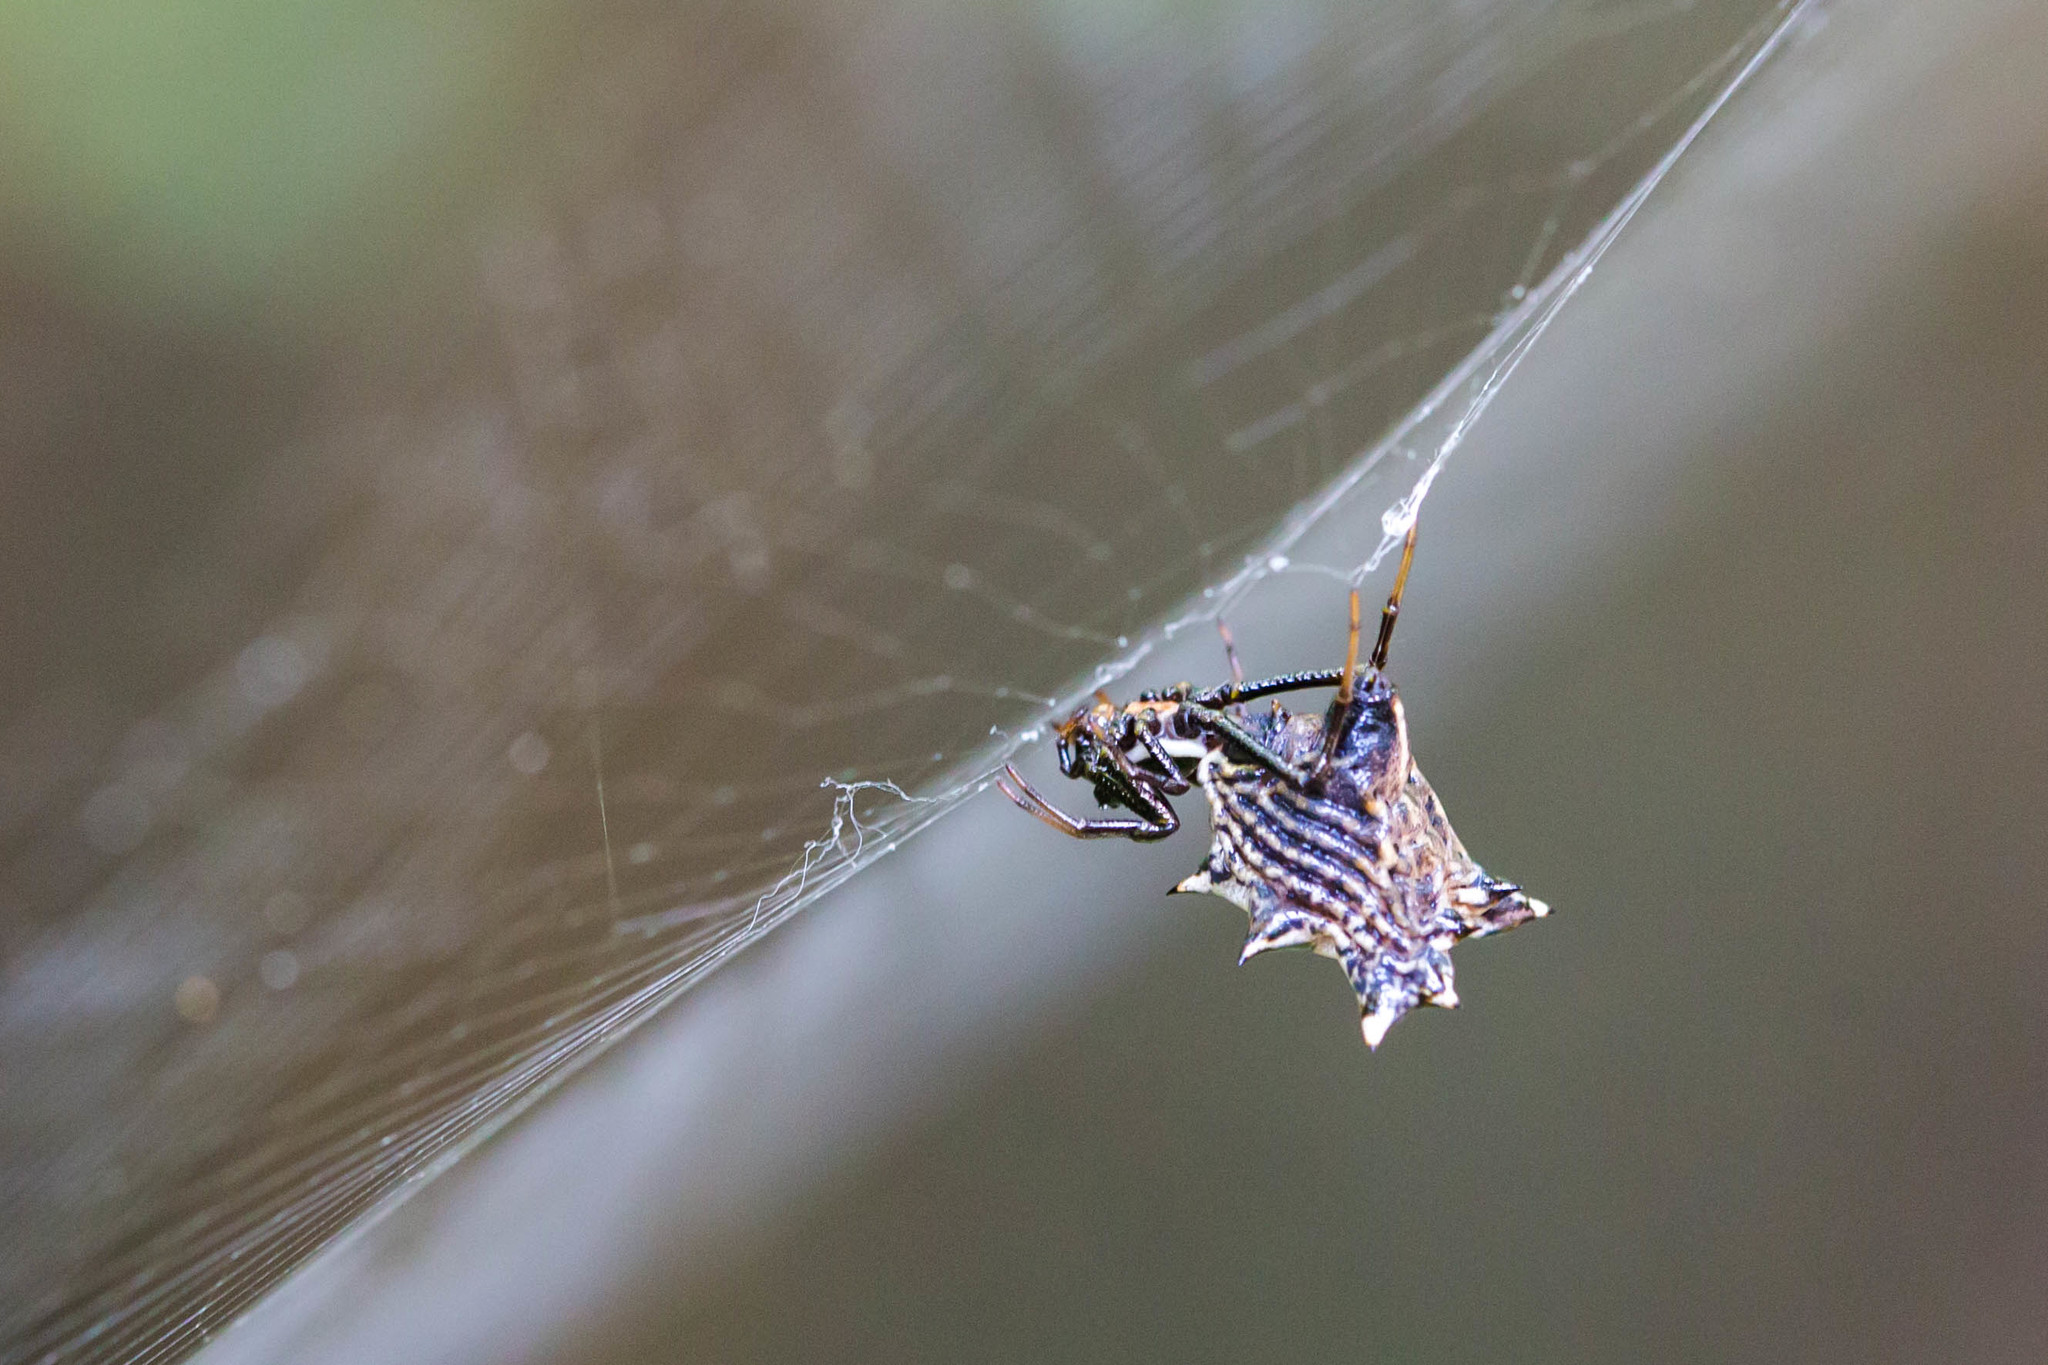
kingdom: Animalia
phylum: Arthropoda
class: Arachnida
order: Araneae
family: Araneidae
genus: Micrathena
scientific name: Micrathena gracilis
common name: Orb weavers
